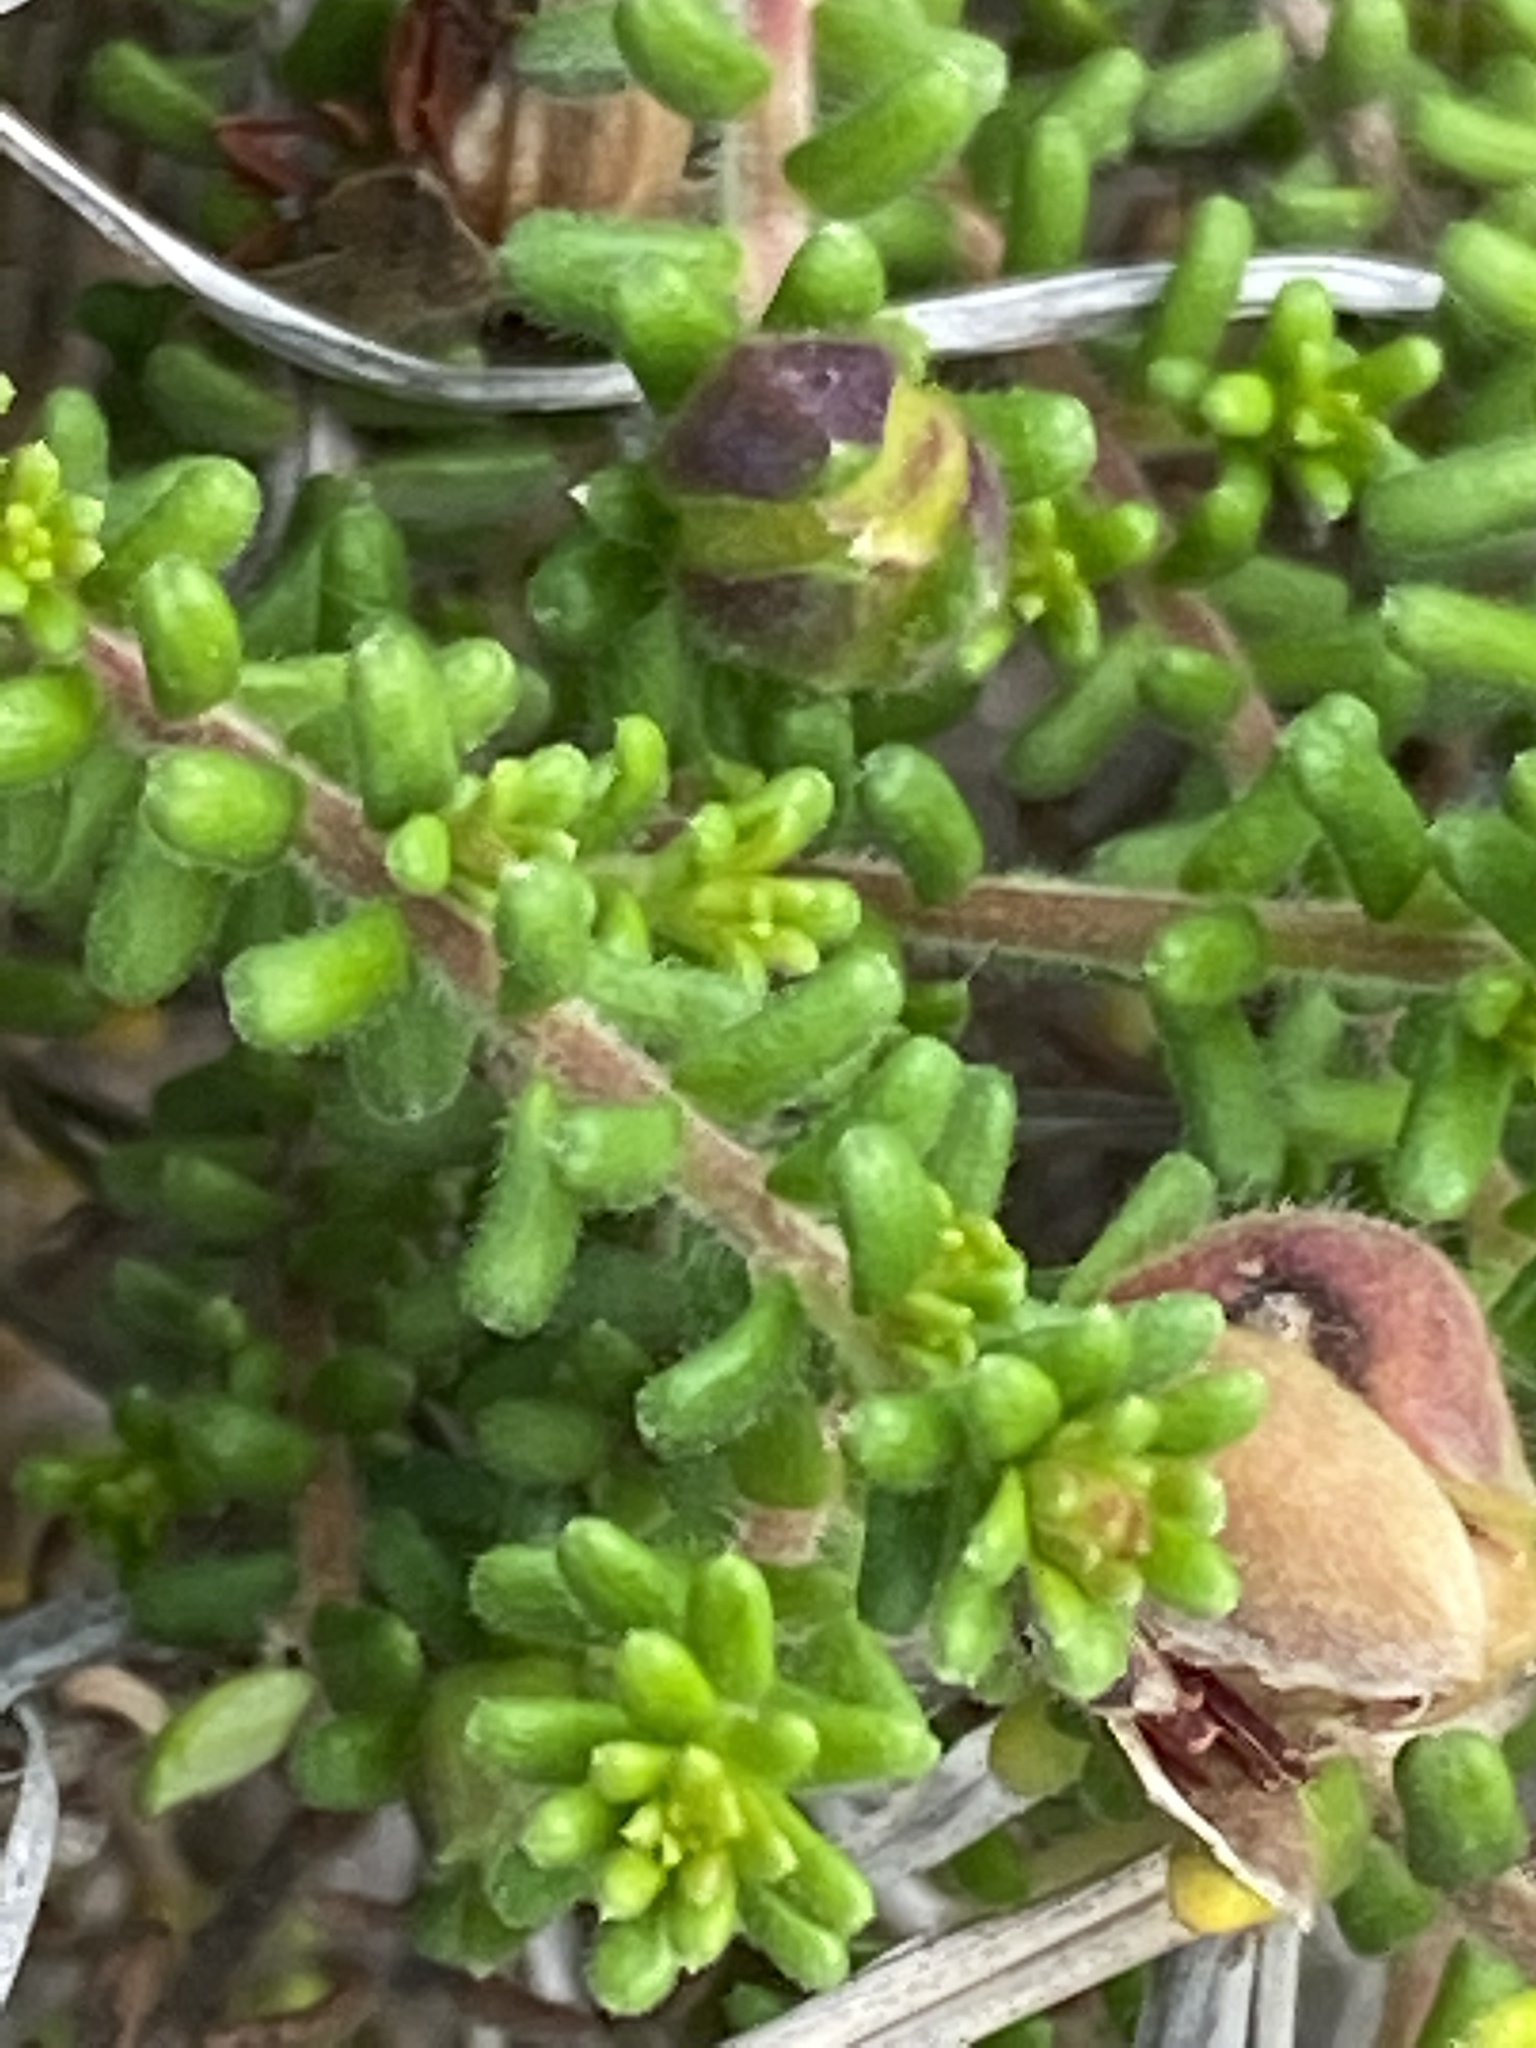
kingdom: Plantae
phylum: Tracheophyta
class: Magnoliopsida
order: Dilleniales
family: Dilleniaceae
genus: Hibbertia
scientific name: Hibbertia vestita
